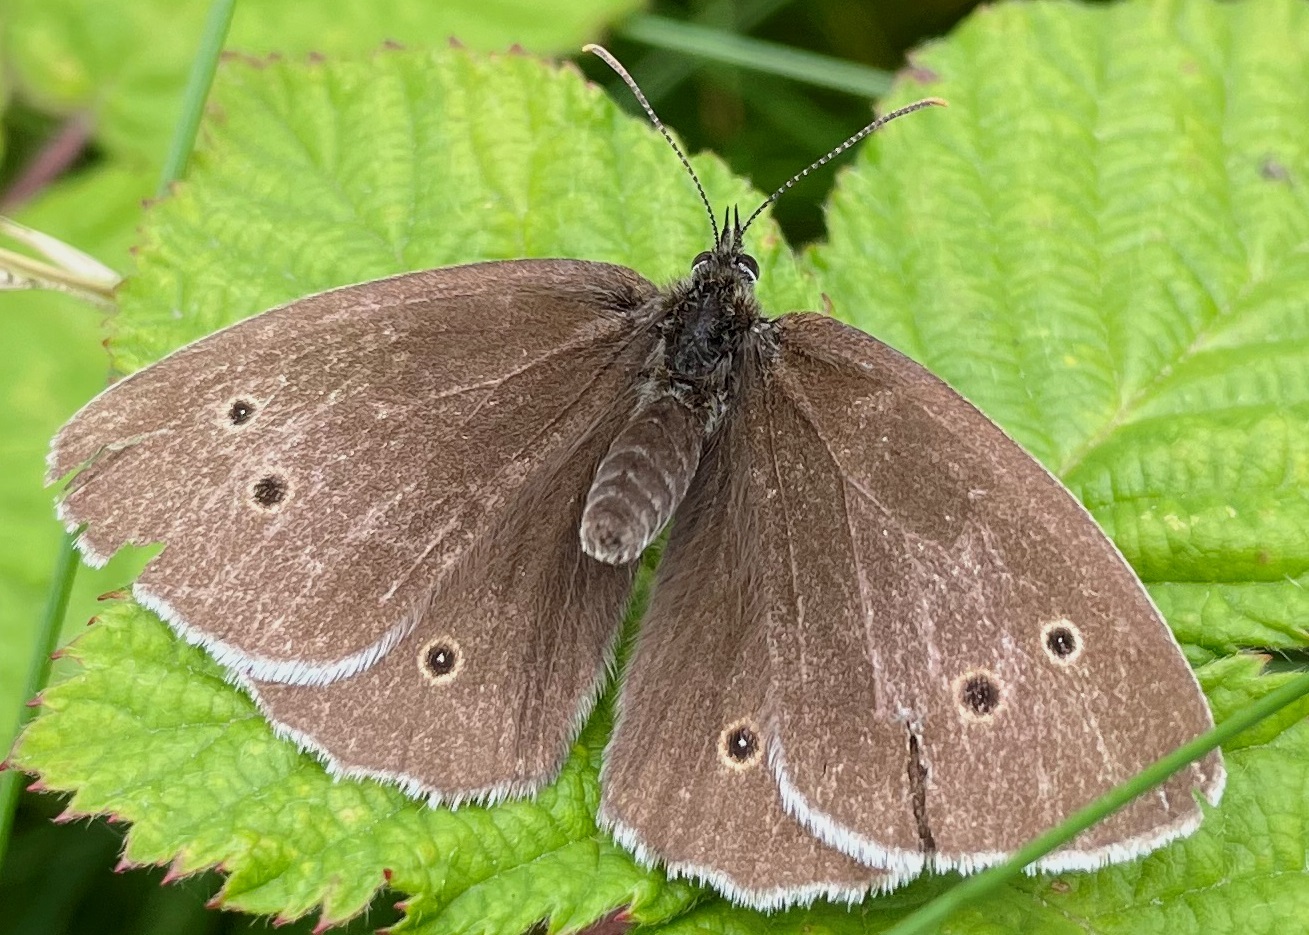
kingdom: Animalia
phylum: Arthropoda
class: Insecta
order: Lepidoptera
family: Nymphalidae
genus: Aphantopus
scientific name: Aphantopus hyperantus
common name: Ringlet
